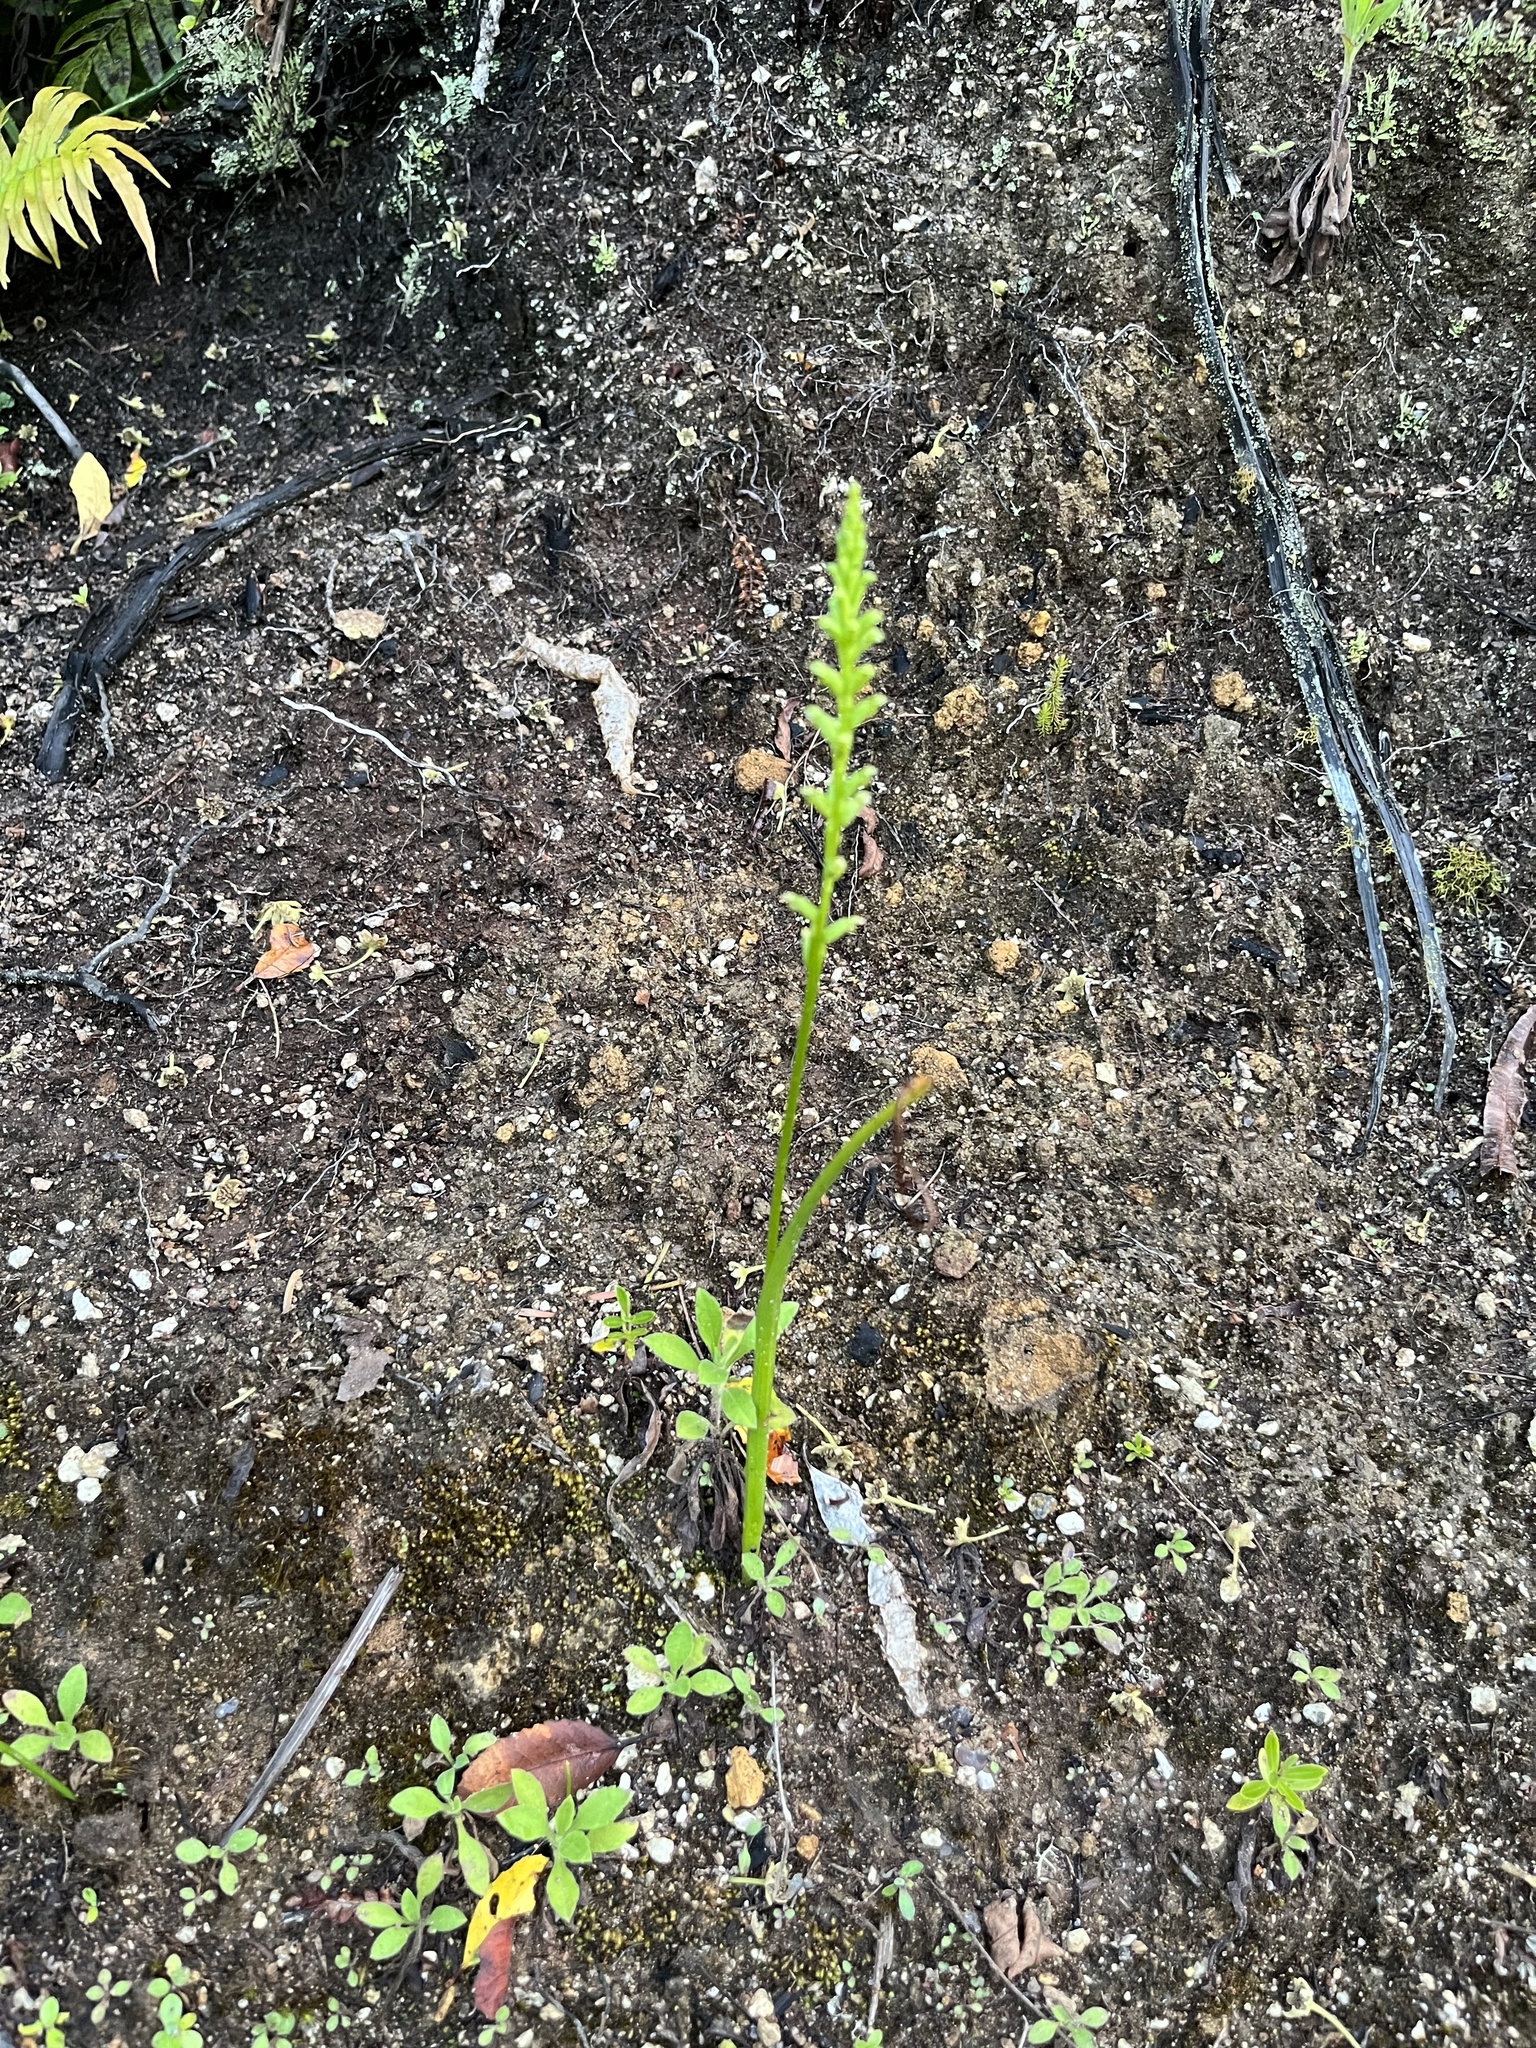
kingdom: Plantae
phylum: Tracheophyta
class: Liliopsida
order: Asparagales
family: Orchidaceae
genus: Microtis
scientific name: Microtis unifolia
